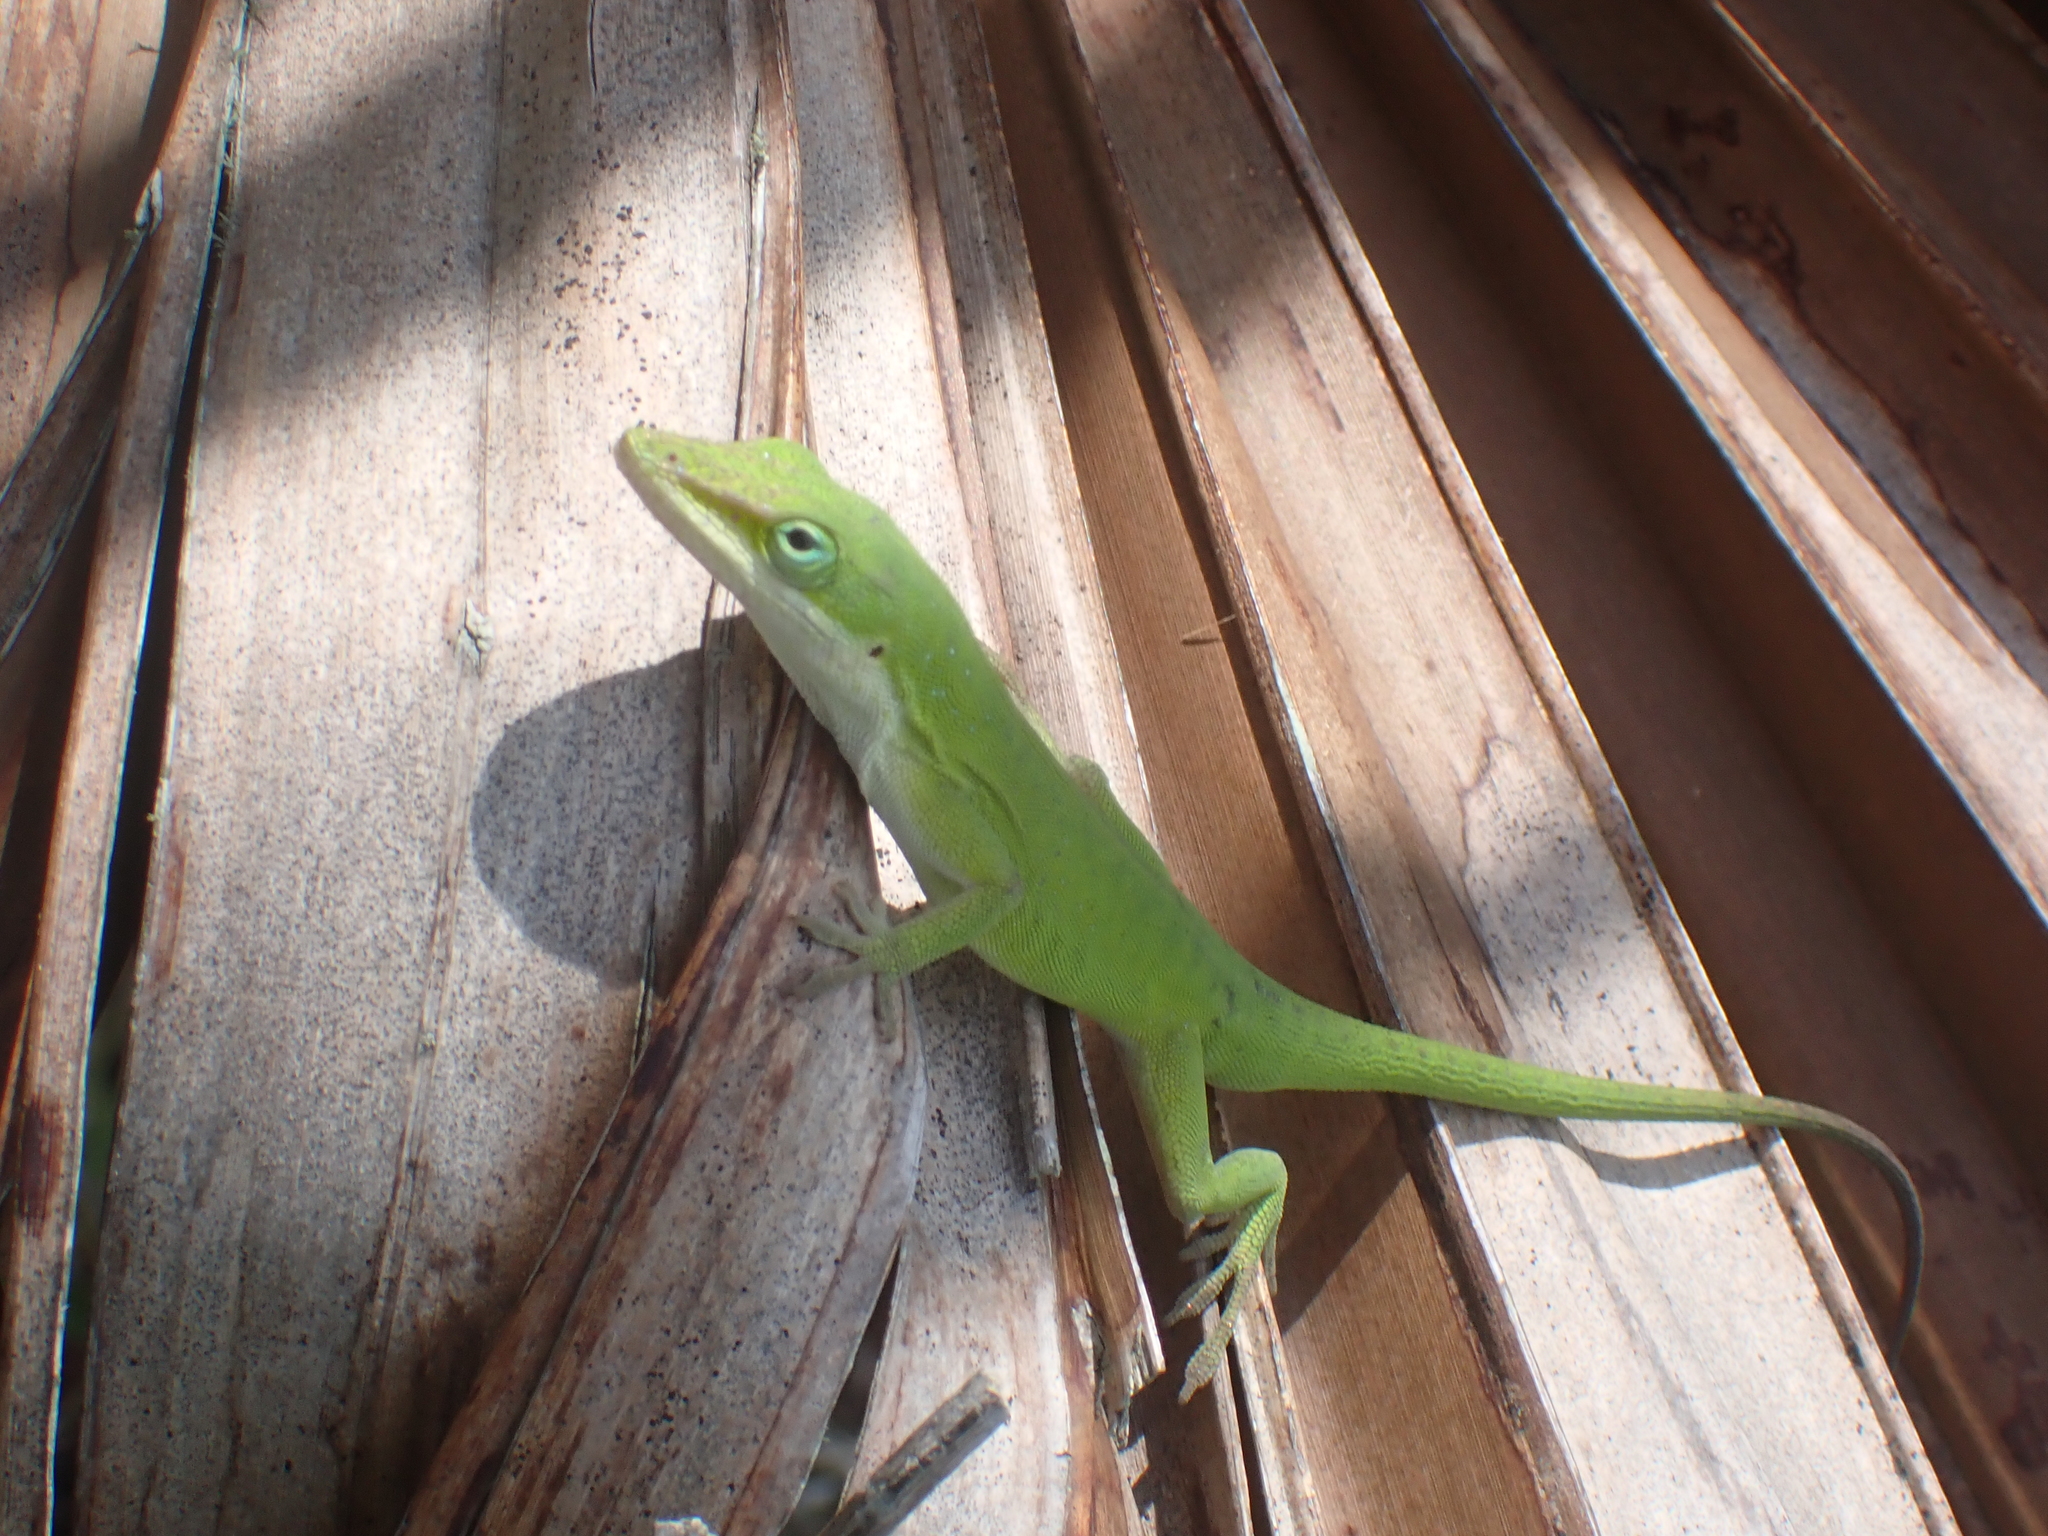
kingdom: Animalia
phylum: Chordata
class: Squamata
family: Dactyloidae
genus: Anolis
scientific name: Anolis carolinensis
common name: Green anole
